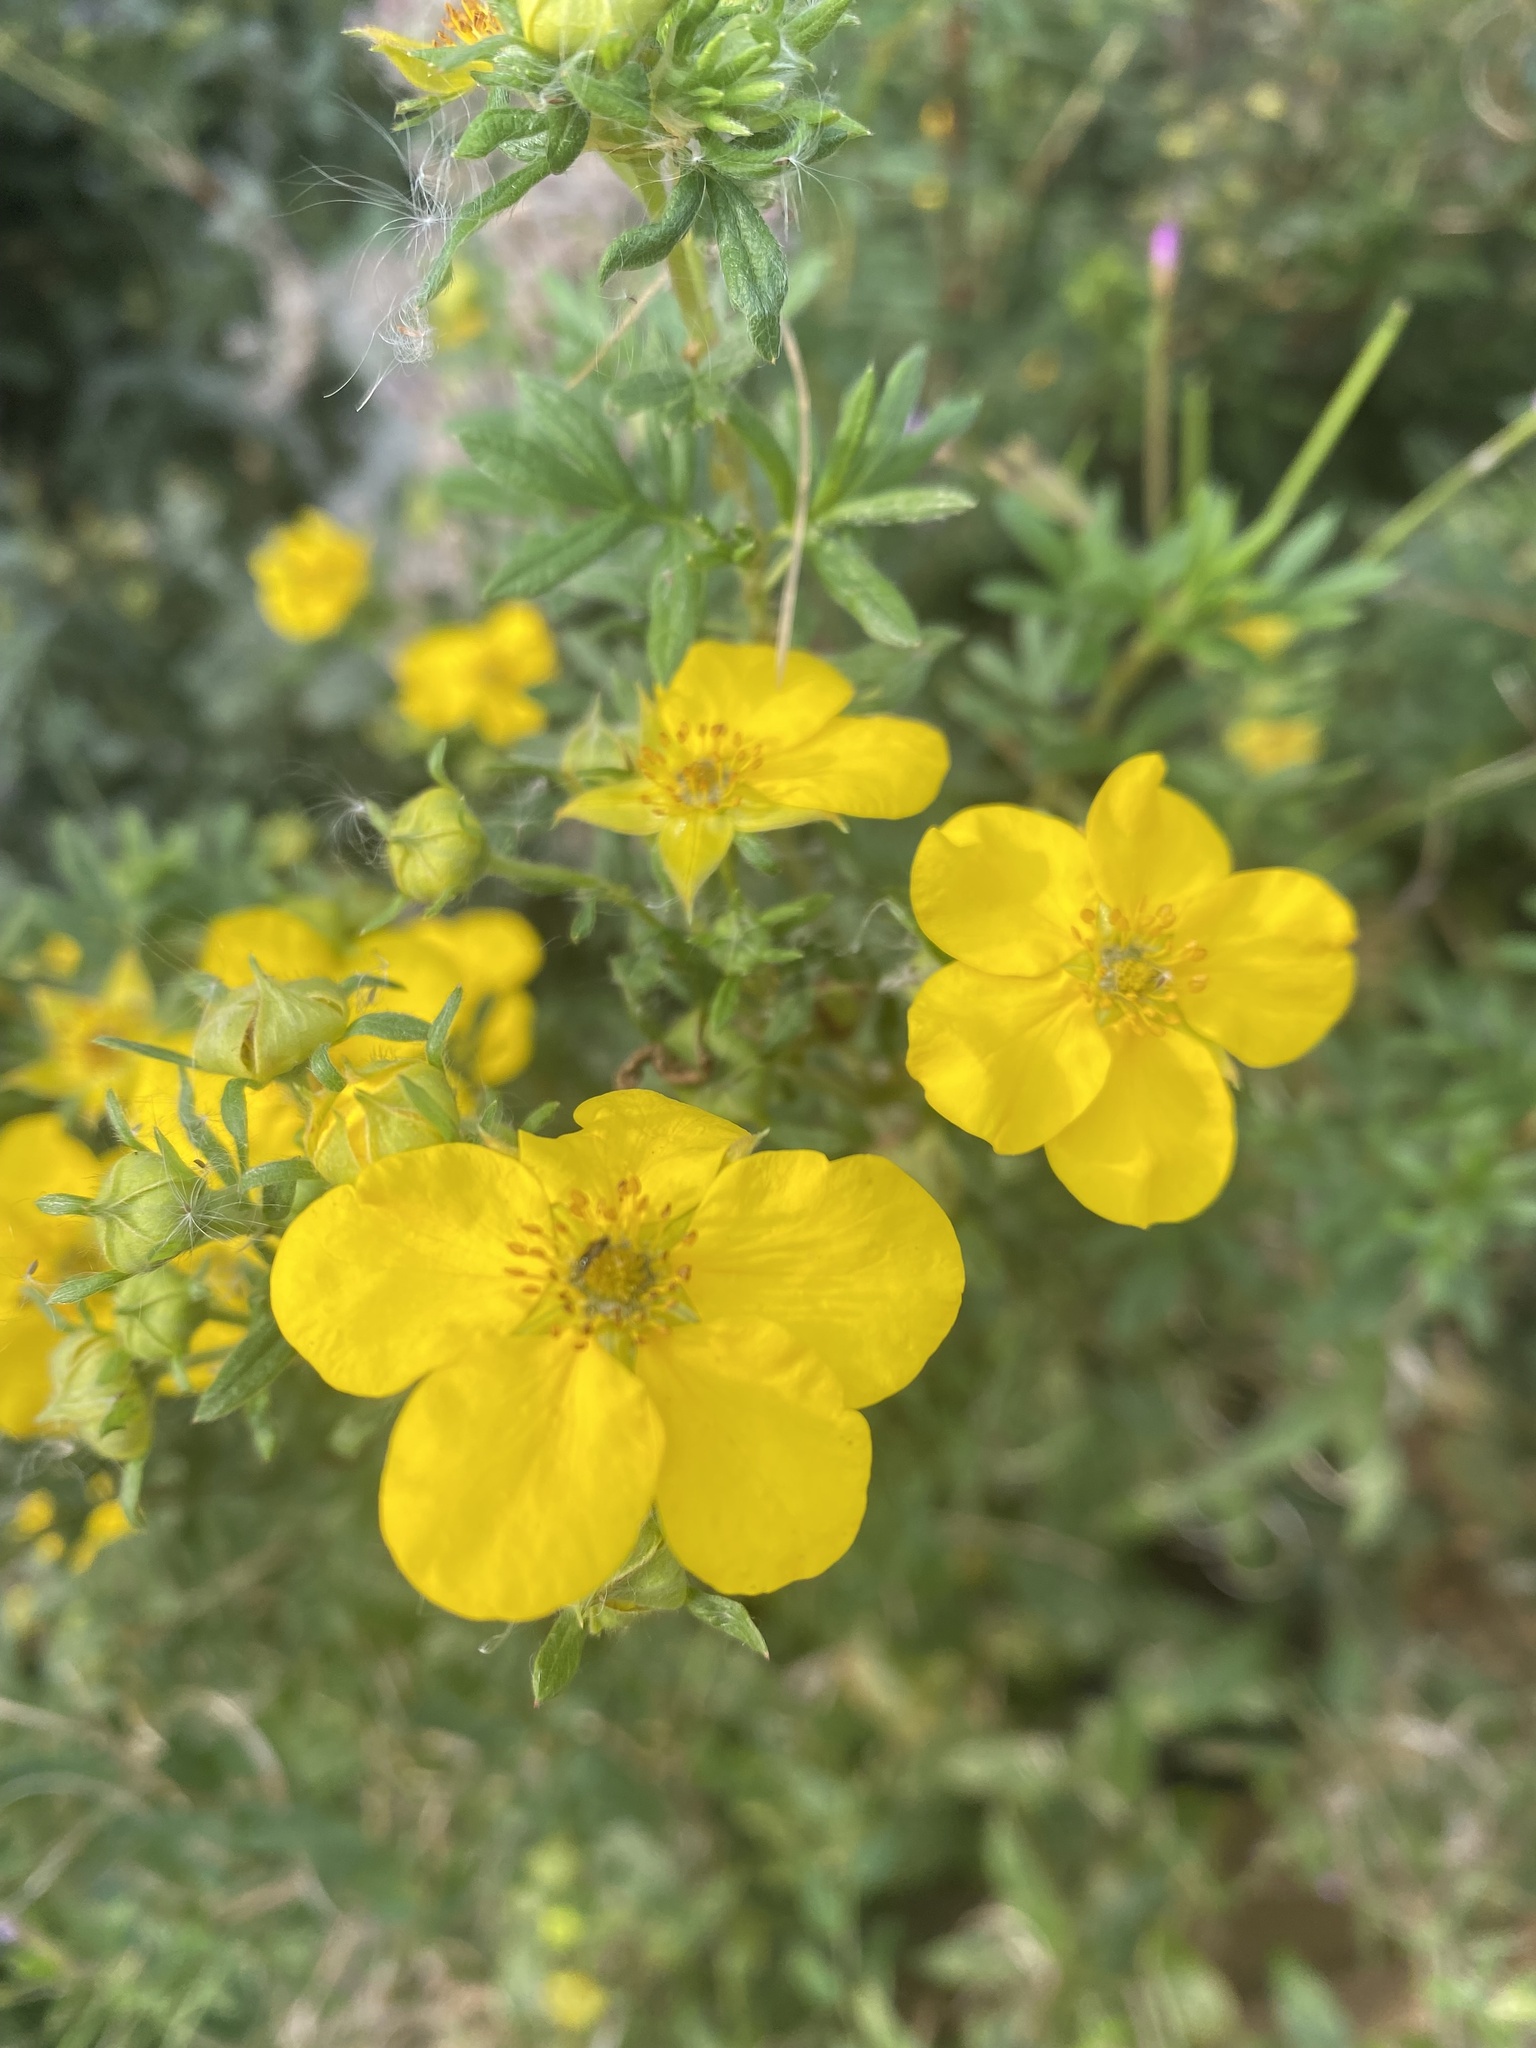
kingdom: Plantae
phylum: Tracheophyta
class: Magnoliopsida
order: Rosales
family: Rosaceae
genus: Dasiphora
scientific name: Dasiphora fruticosa
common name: Shrubby cinquefoil
